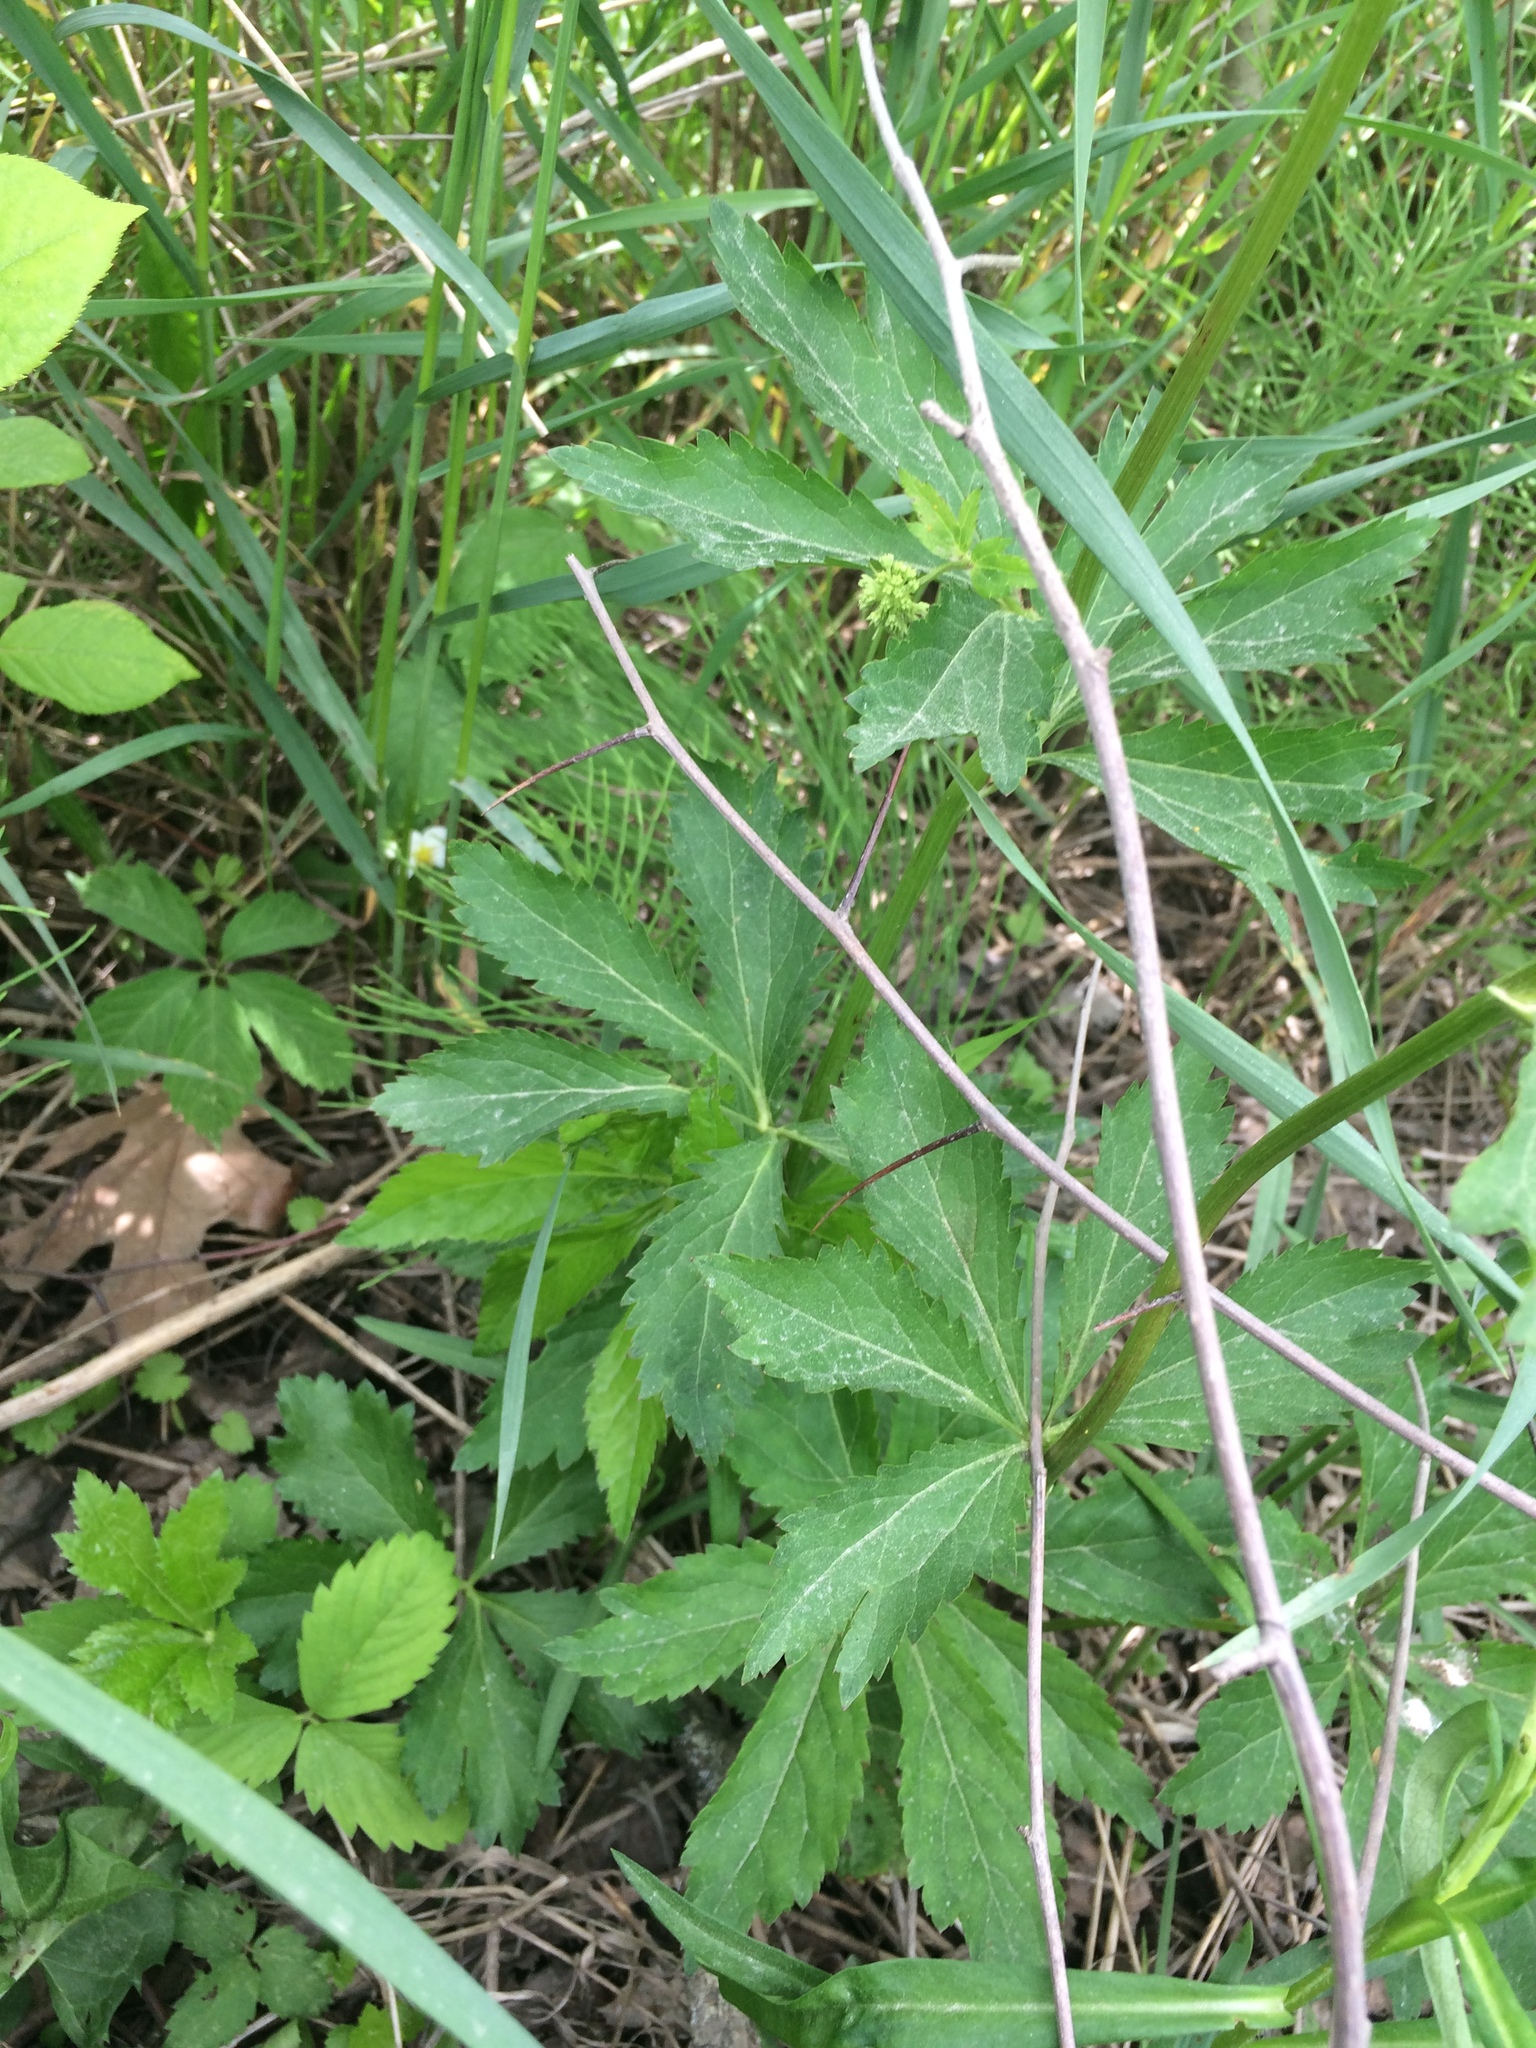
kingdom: Plantae
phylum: Tracheophyta
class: Magnoliopsida
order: Apiales
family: Apiaceae
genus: Sanicula
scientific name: Sanicula marilandica
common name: Black snakeroot
